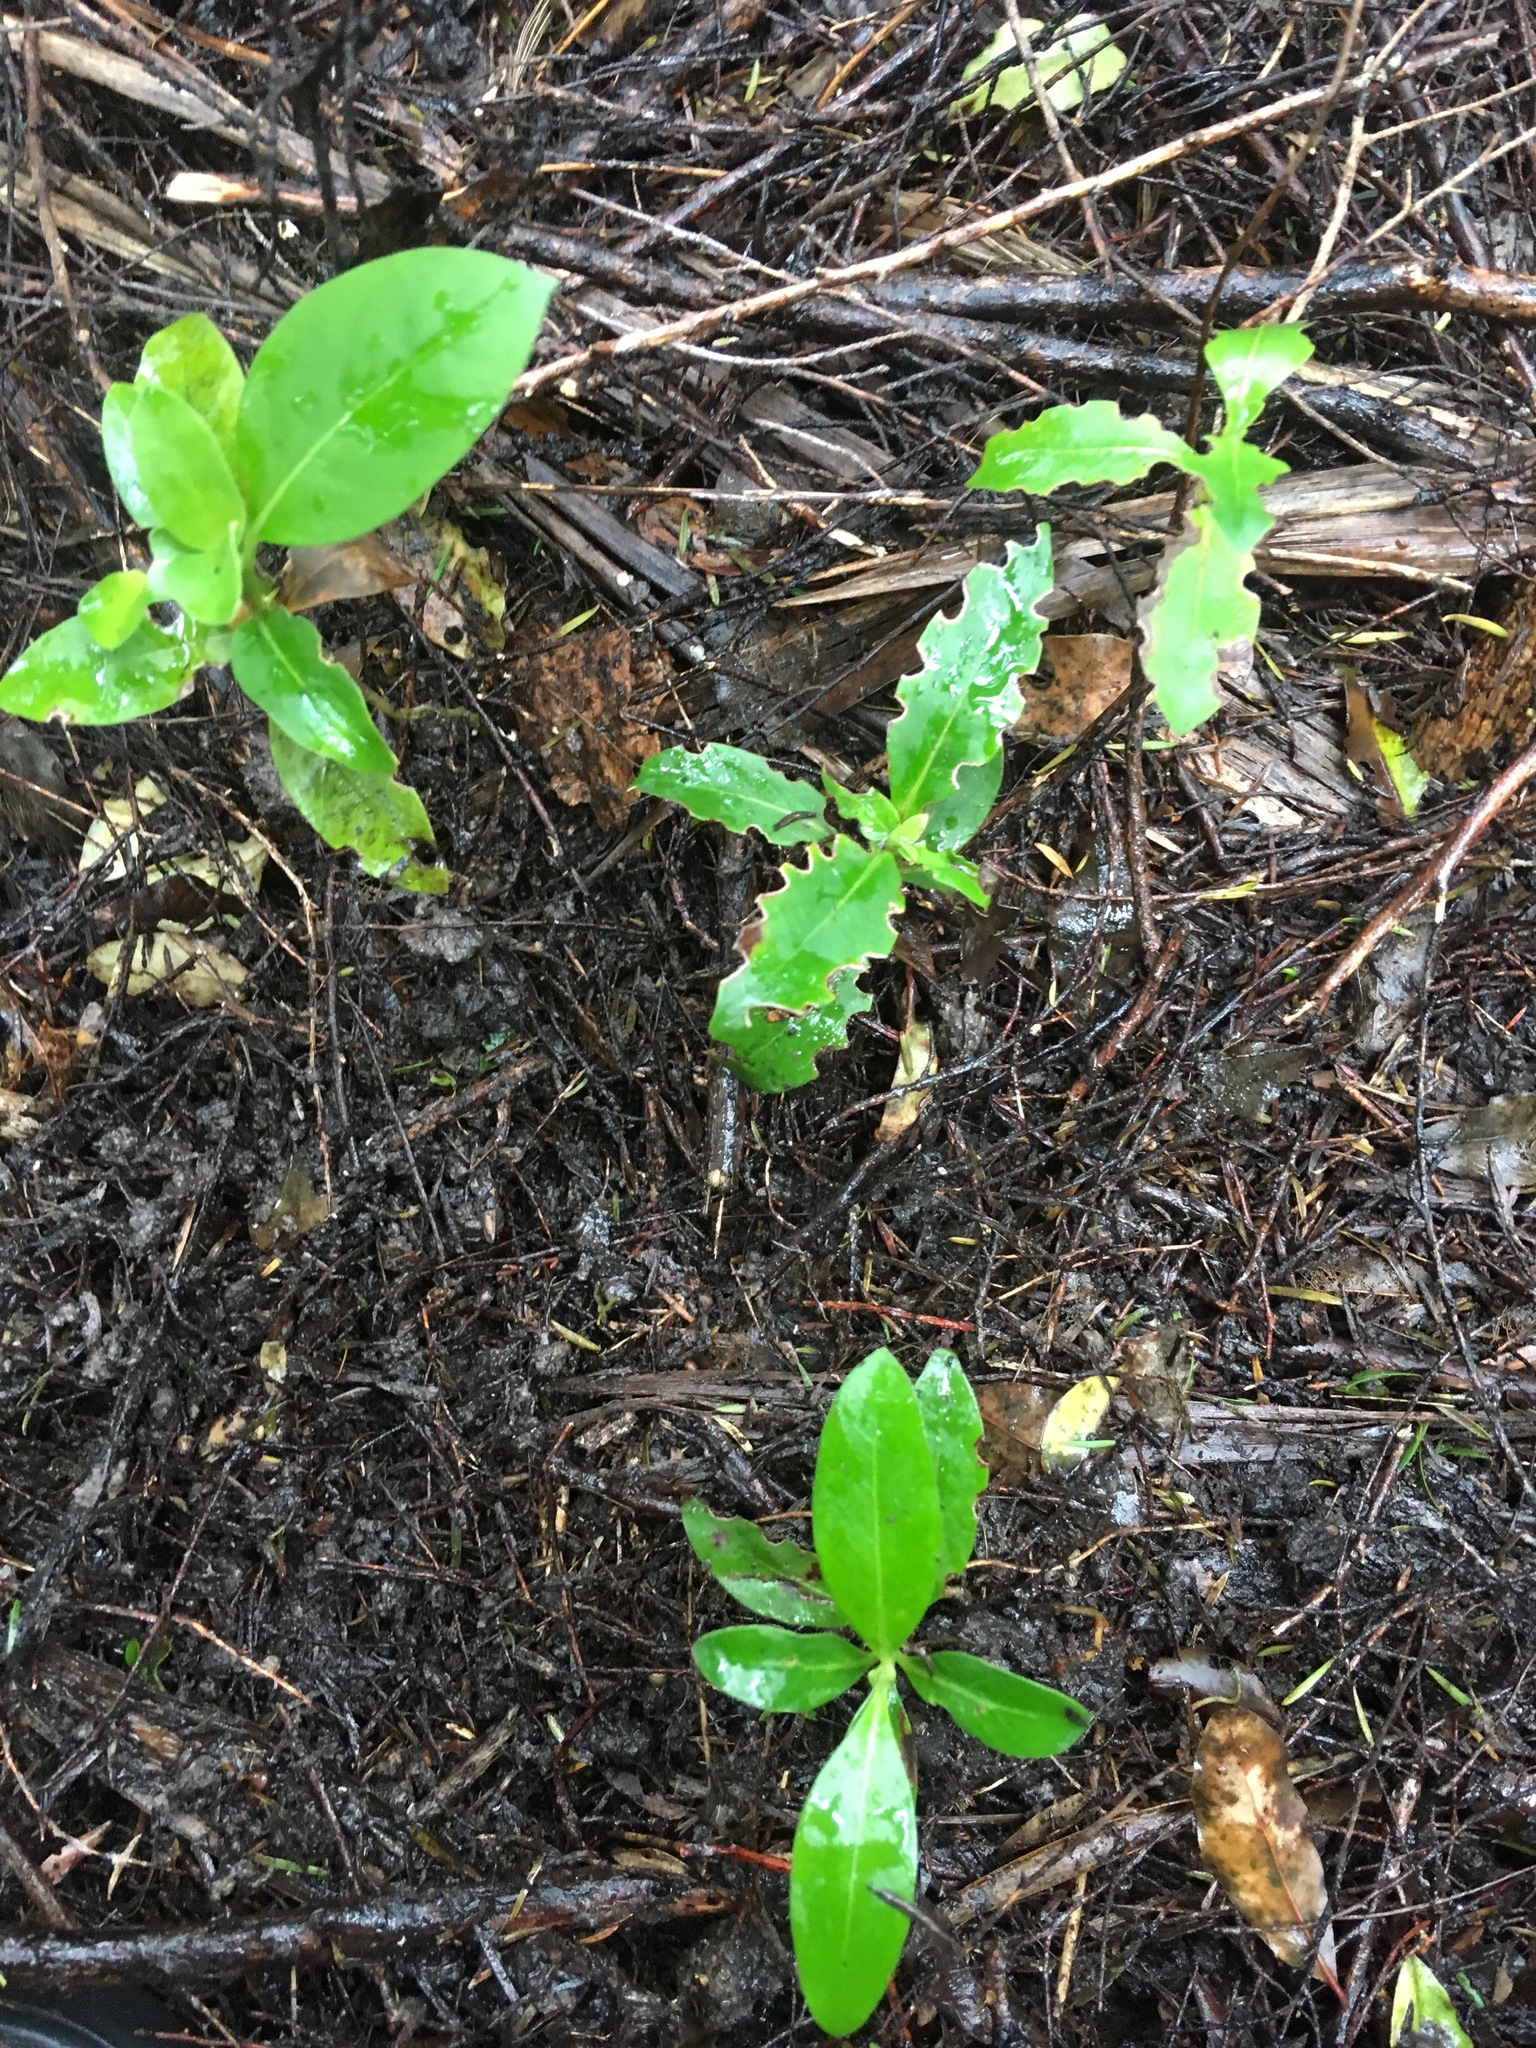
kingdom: Plantae
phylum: Tracheophyta
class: Magnoliopsida
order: Gentianales
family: Rubiaceae
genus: Coprosma
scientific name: Coprosma robusta
